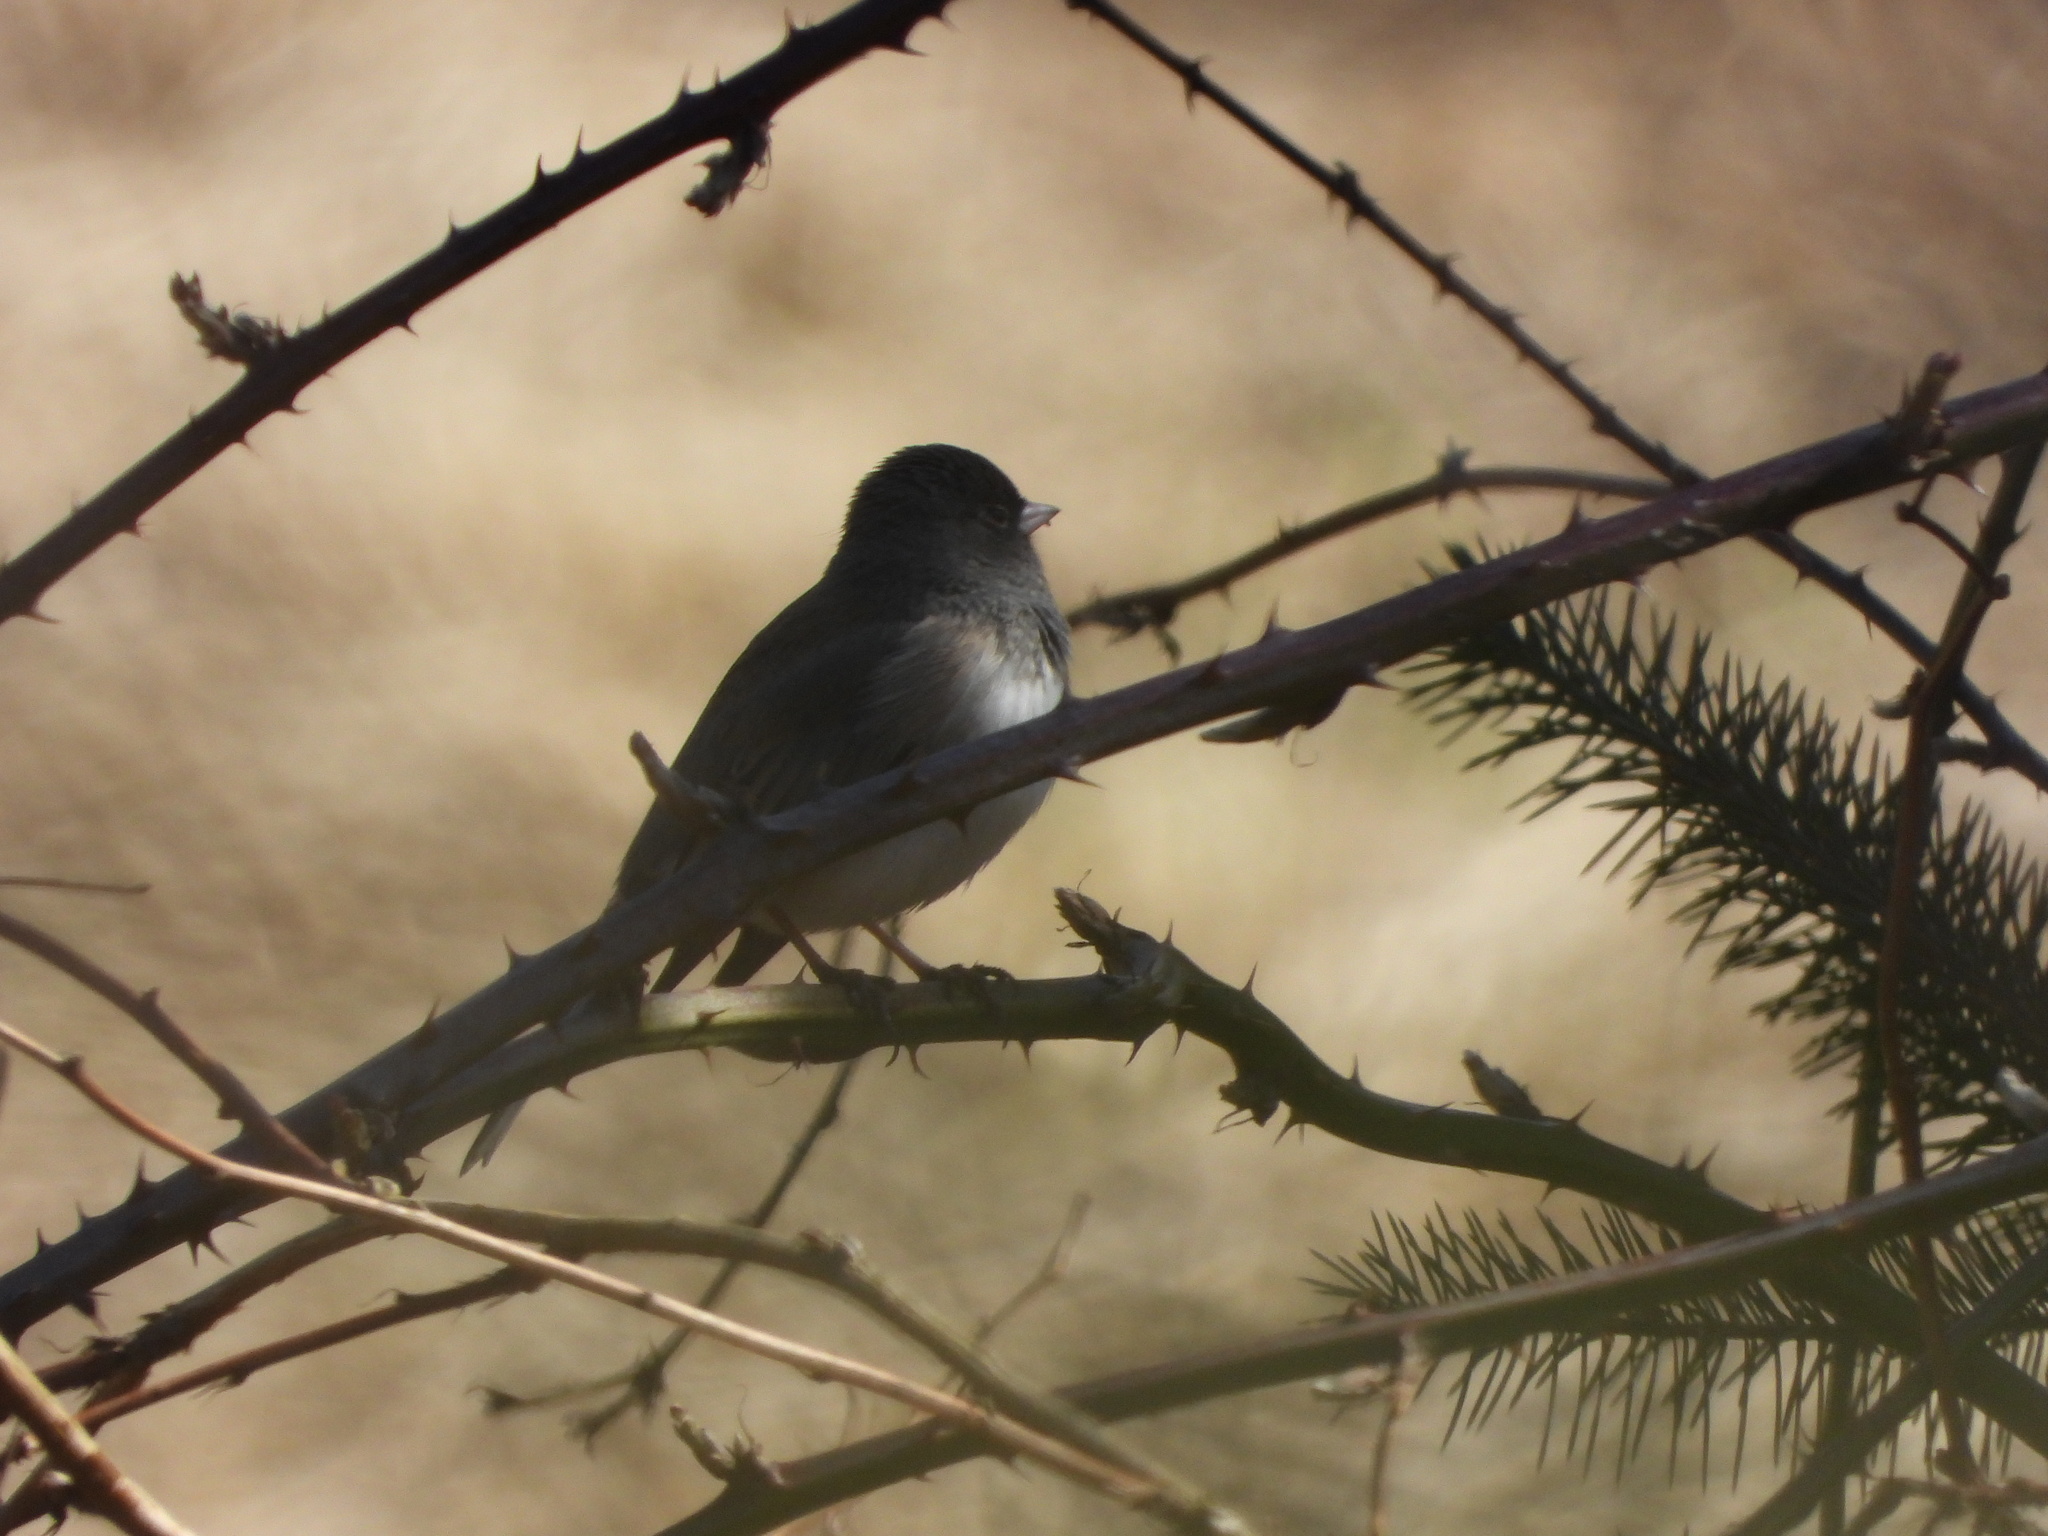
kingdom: Animalia
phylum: Chordata
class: Aves
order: Passeriformes
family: Passerellidae
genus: Junco
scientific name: Junco hyemalis
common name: Dark-eyed junco
